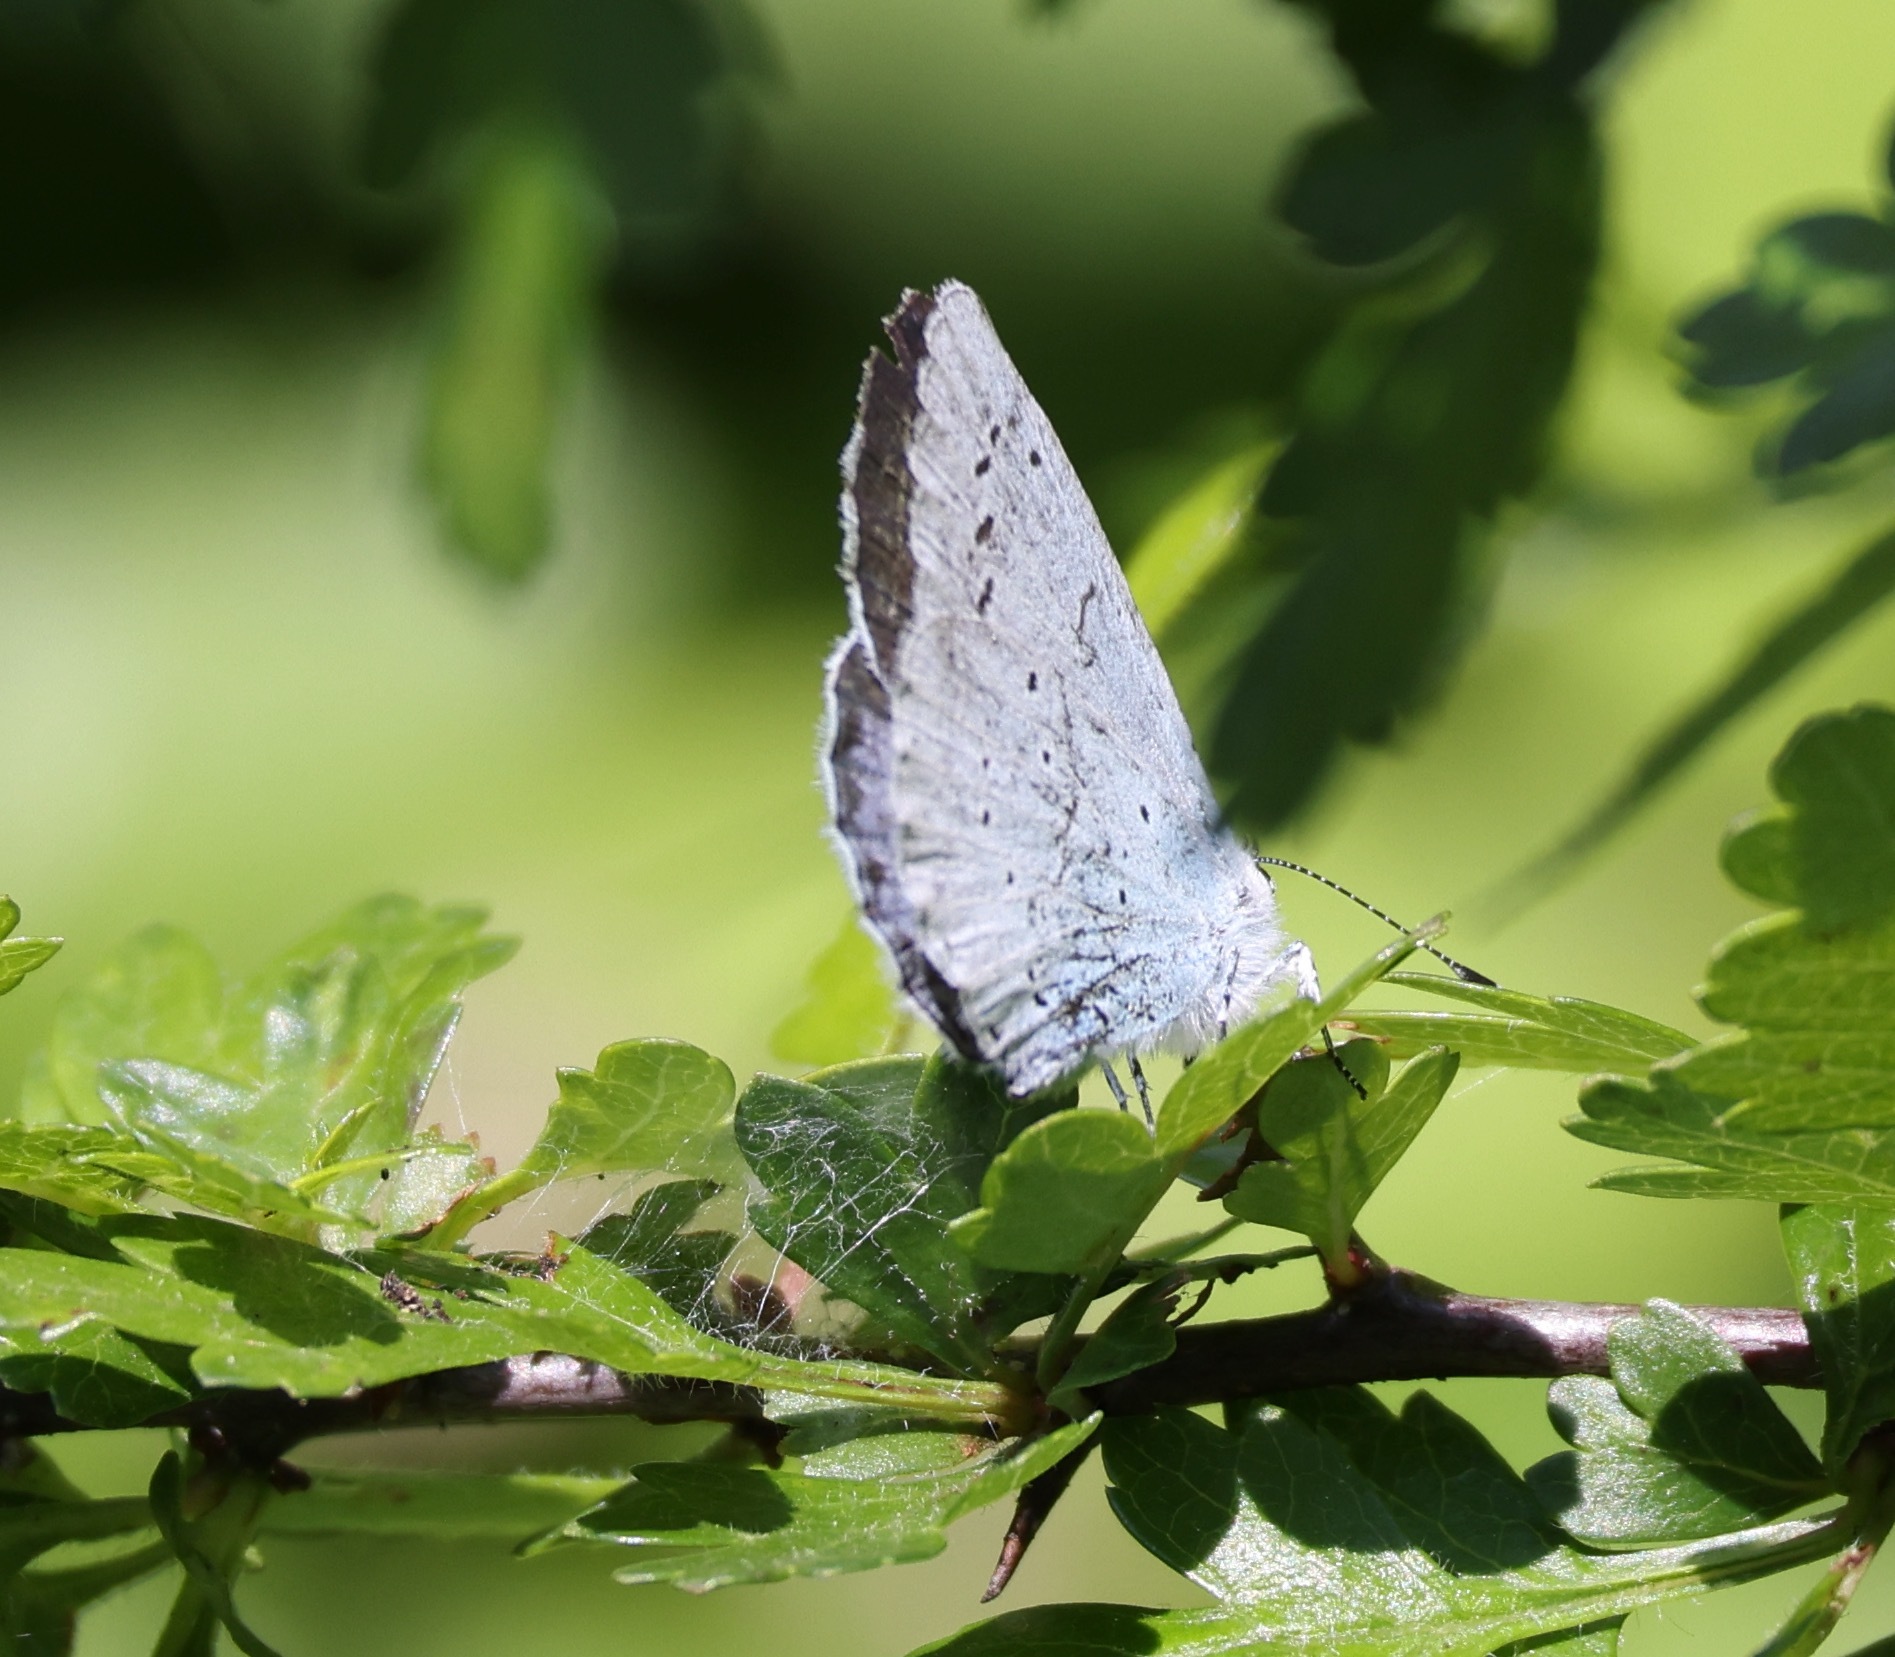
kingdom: Animalia
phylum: Arthropoda
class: Insecta
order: Lepidoptera
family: Lycaenidae
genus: Celastrina
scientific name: Celastrina argiolus
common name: Holly blue
